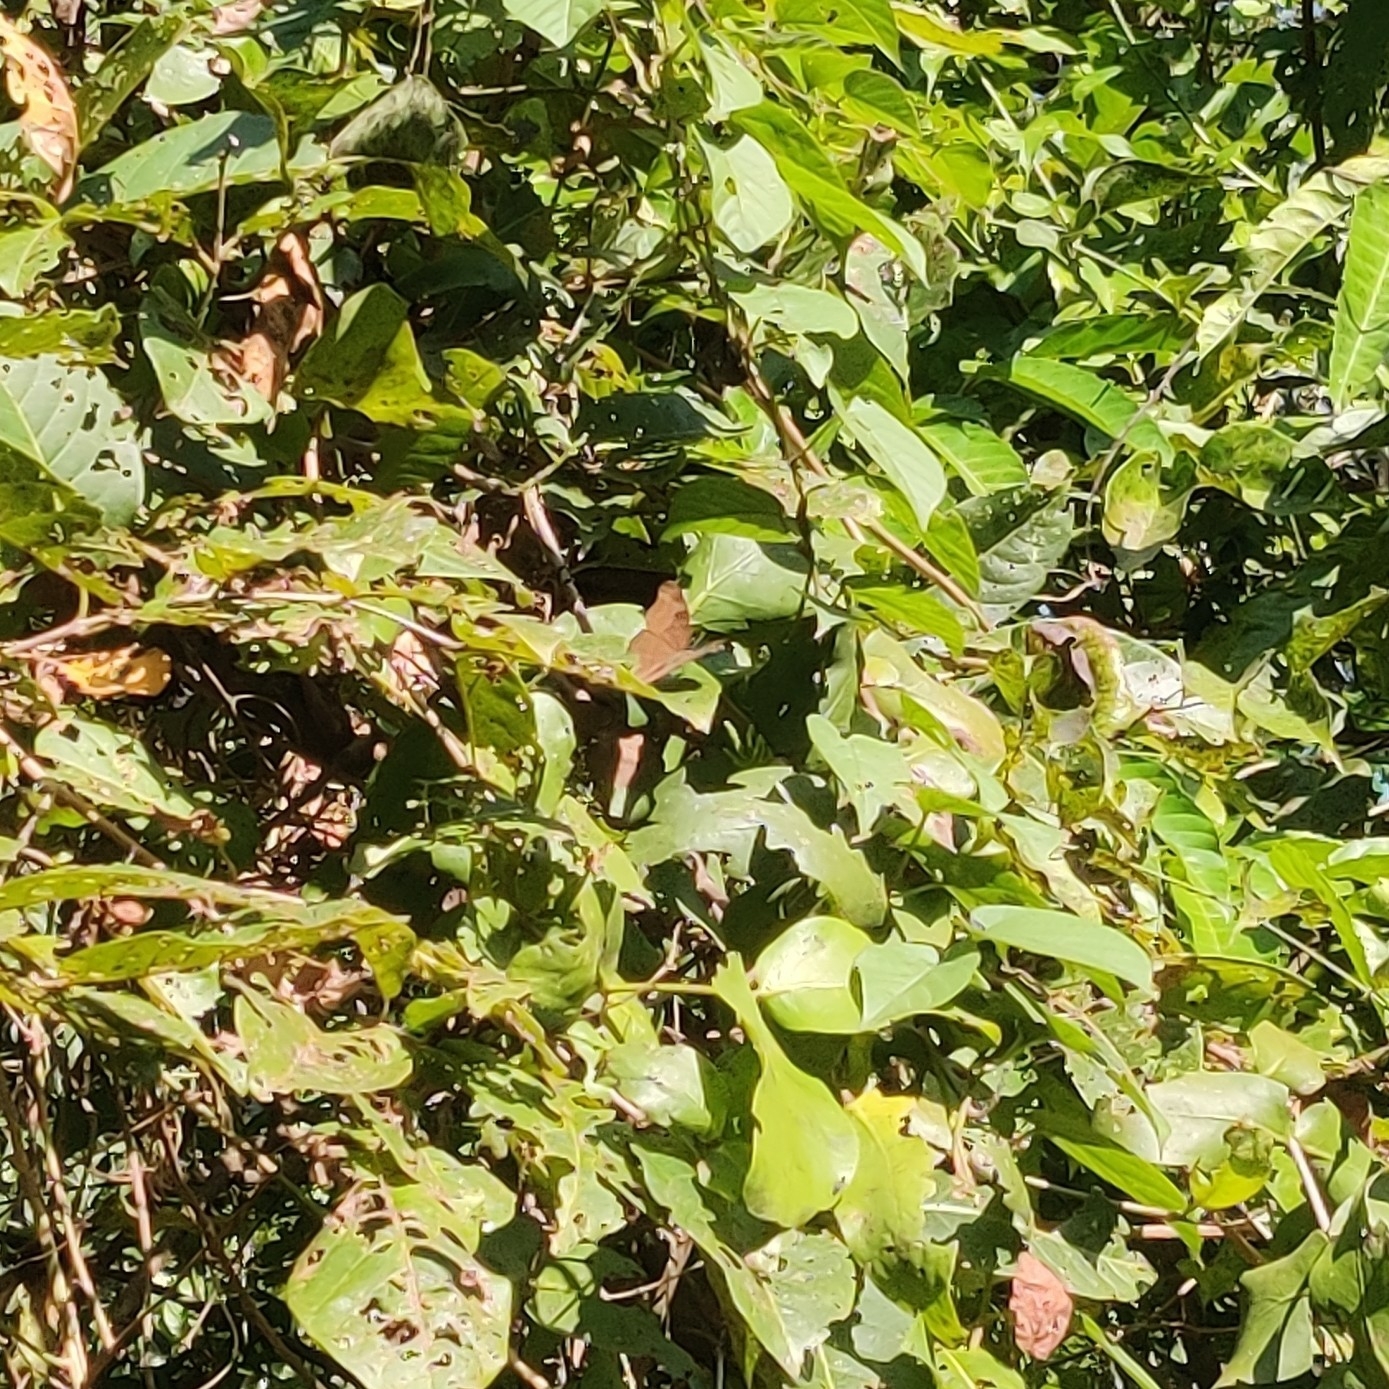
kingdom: Animalia
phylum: Arthropoda
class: Insecta
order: Lepidoptera
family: Nymphalidae
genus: Junonia
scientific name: Junonia iphita
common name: Chocolate pansy
